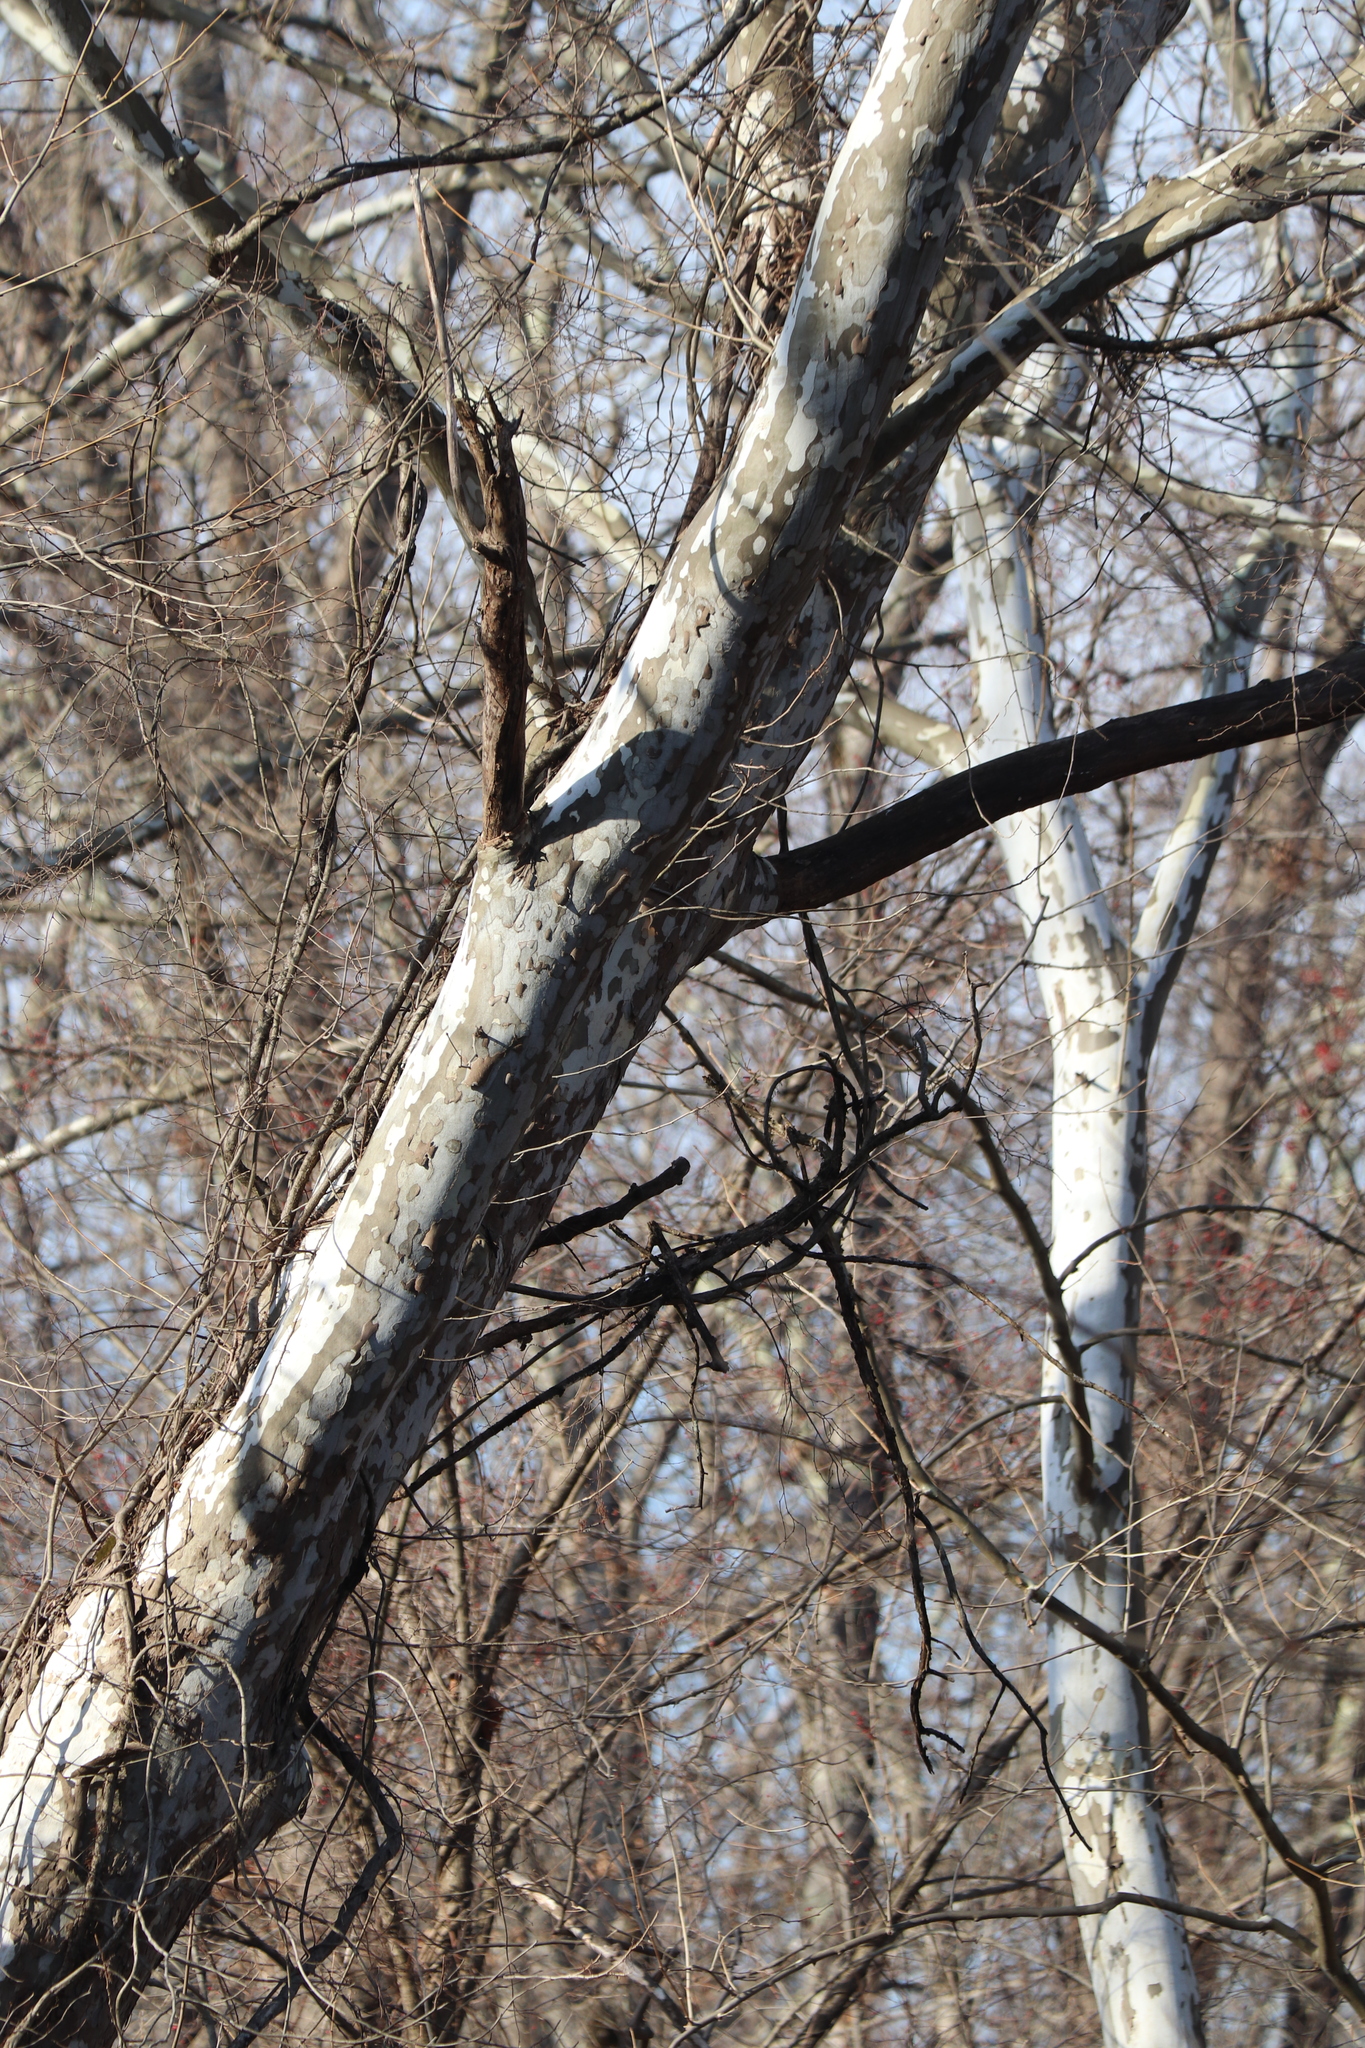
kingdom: Plantae
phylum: Tracheophyta
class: Magnoliopsida
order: Proteales
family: Platanaceae
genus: Platanus
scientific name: Platanus occidentalis
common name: American sycamore
